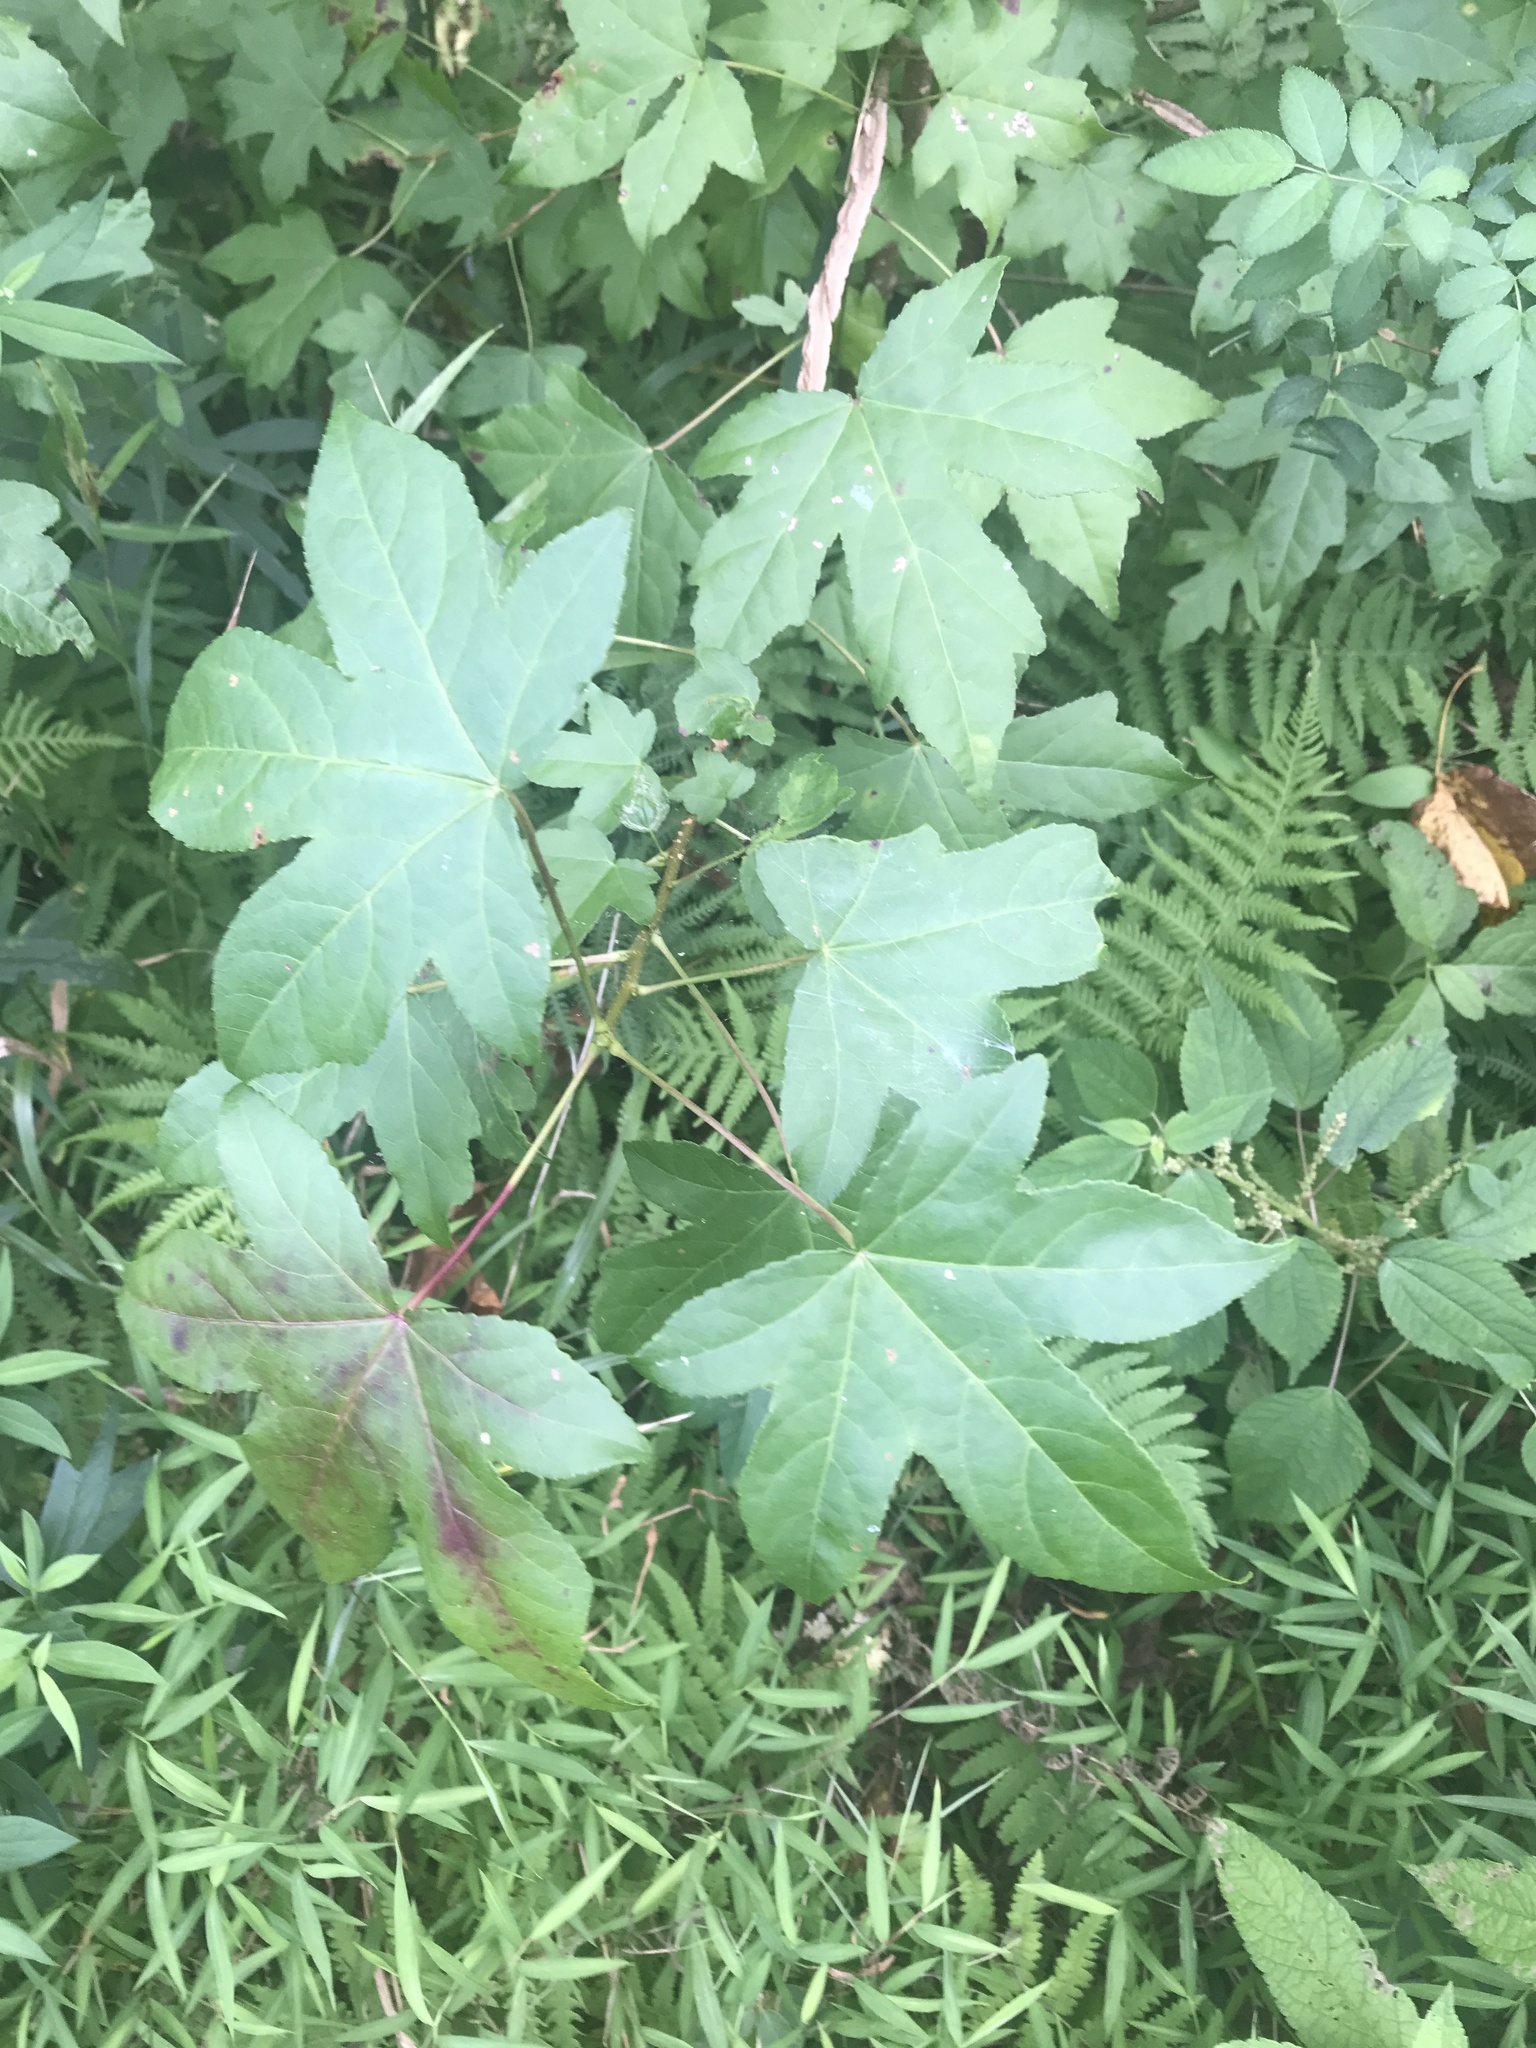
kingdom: Plantae
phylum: Tracheophyta
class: Magnoliopsida
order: Saxifragales
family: Altingiaceae
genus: Liquidambar
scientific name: Liquidambar styraciflua
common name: Sweet gum
